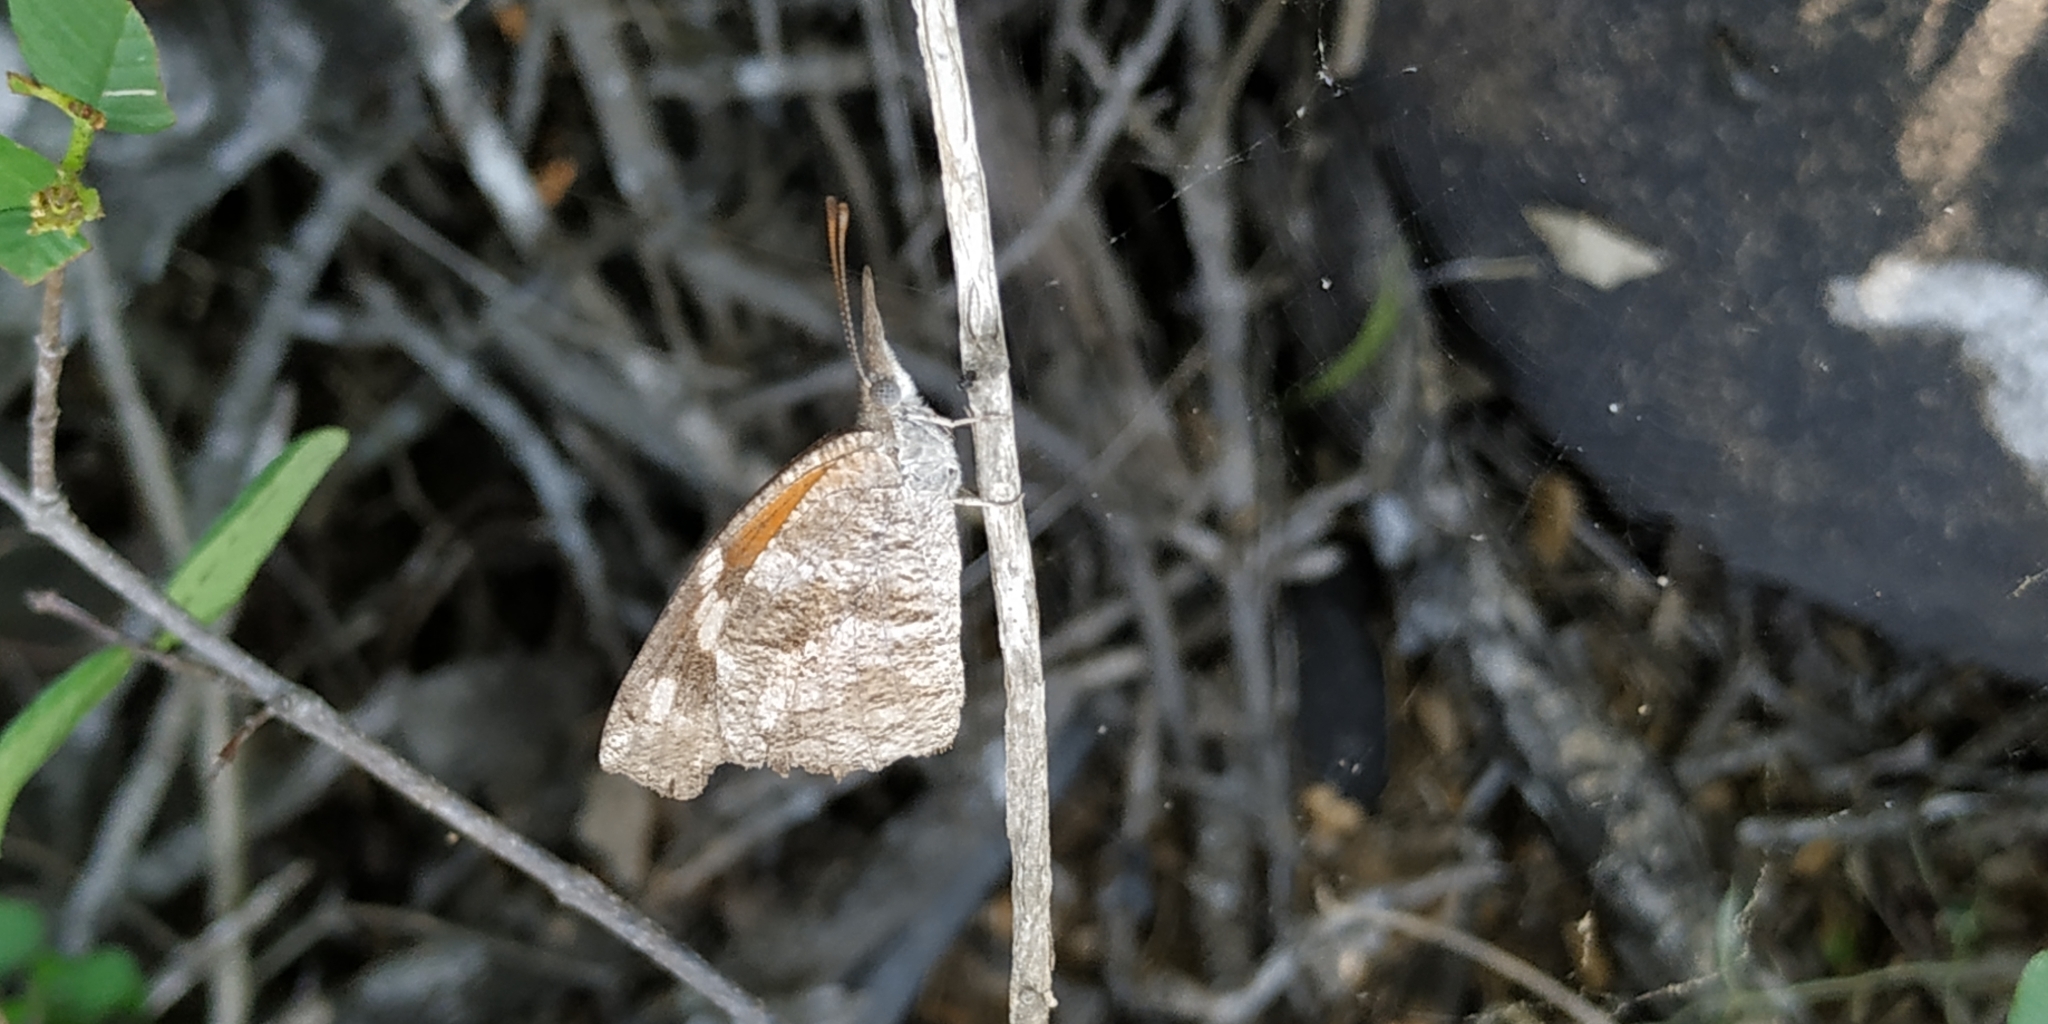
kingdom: Animalia
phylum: Arthropoda
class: Insecta
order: Lepidoptera
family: Nymphalidae
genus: Libytheana
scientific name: Libytheana carinenta
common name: American snout
